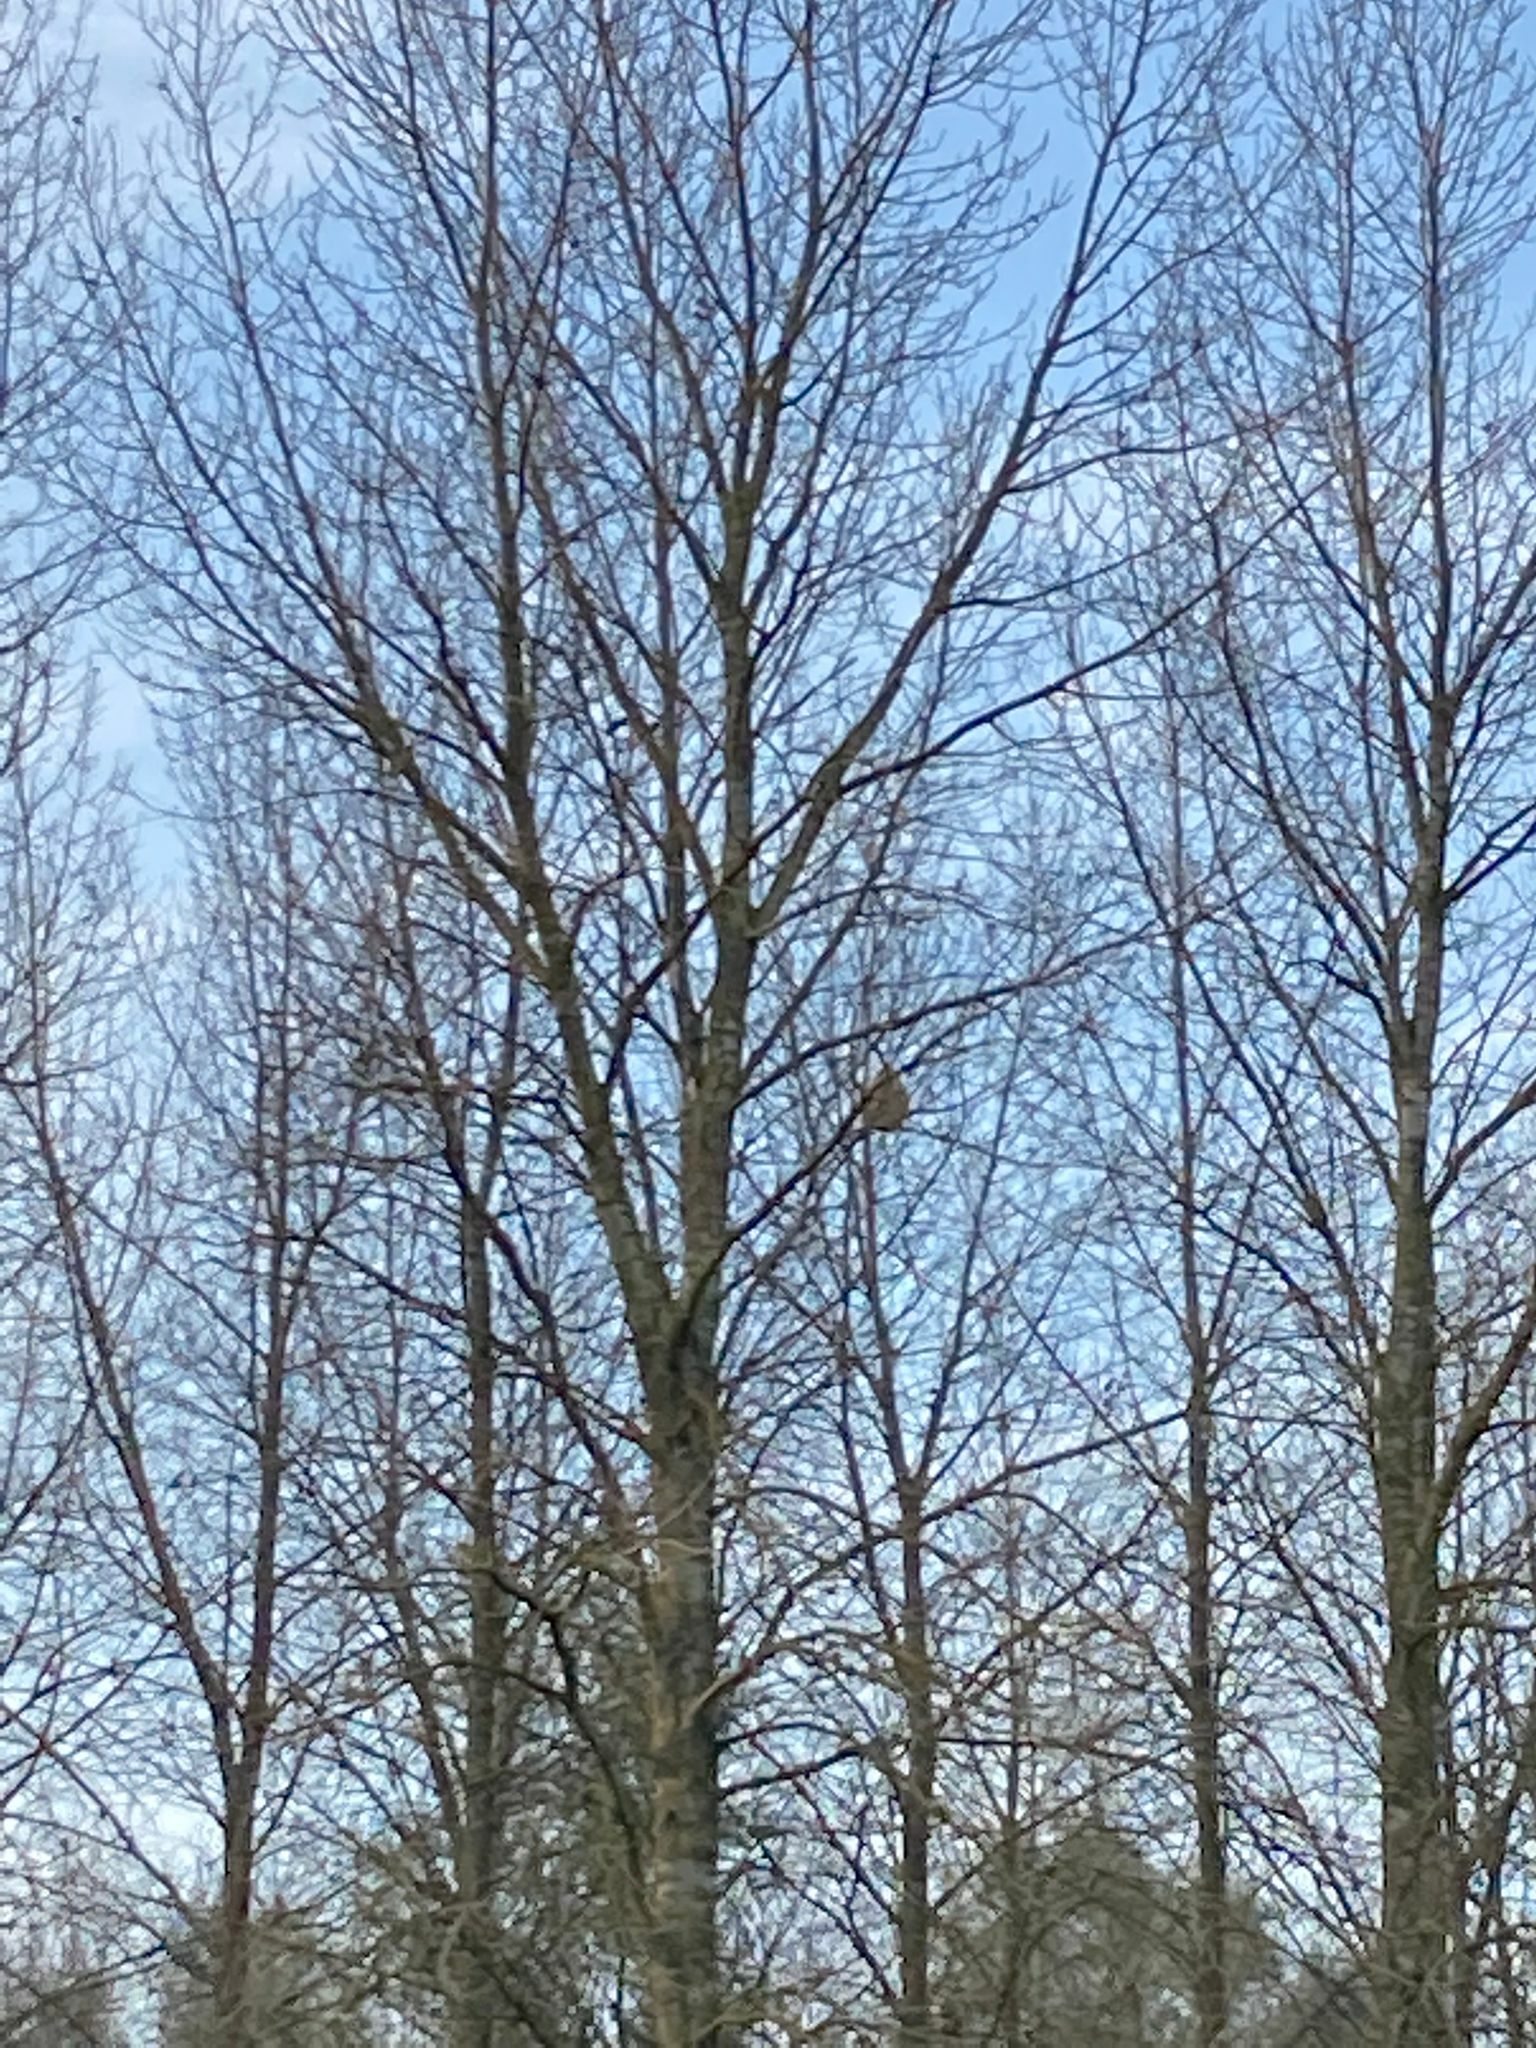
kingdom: Animalia
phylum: Arthropoda
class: Insecta
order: Hymenoptera
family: Vespidae
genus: Vespa
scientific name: Vespa velutina
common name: Asian hornet
